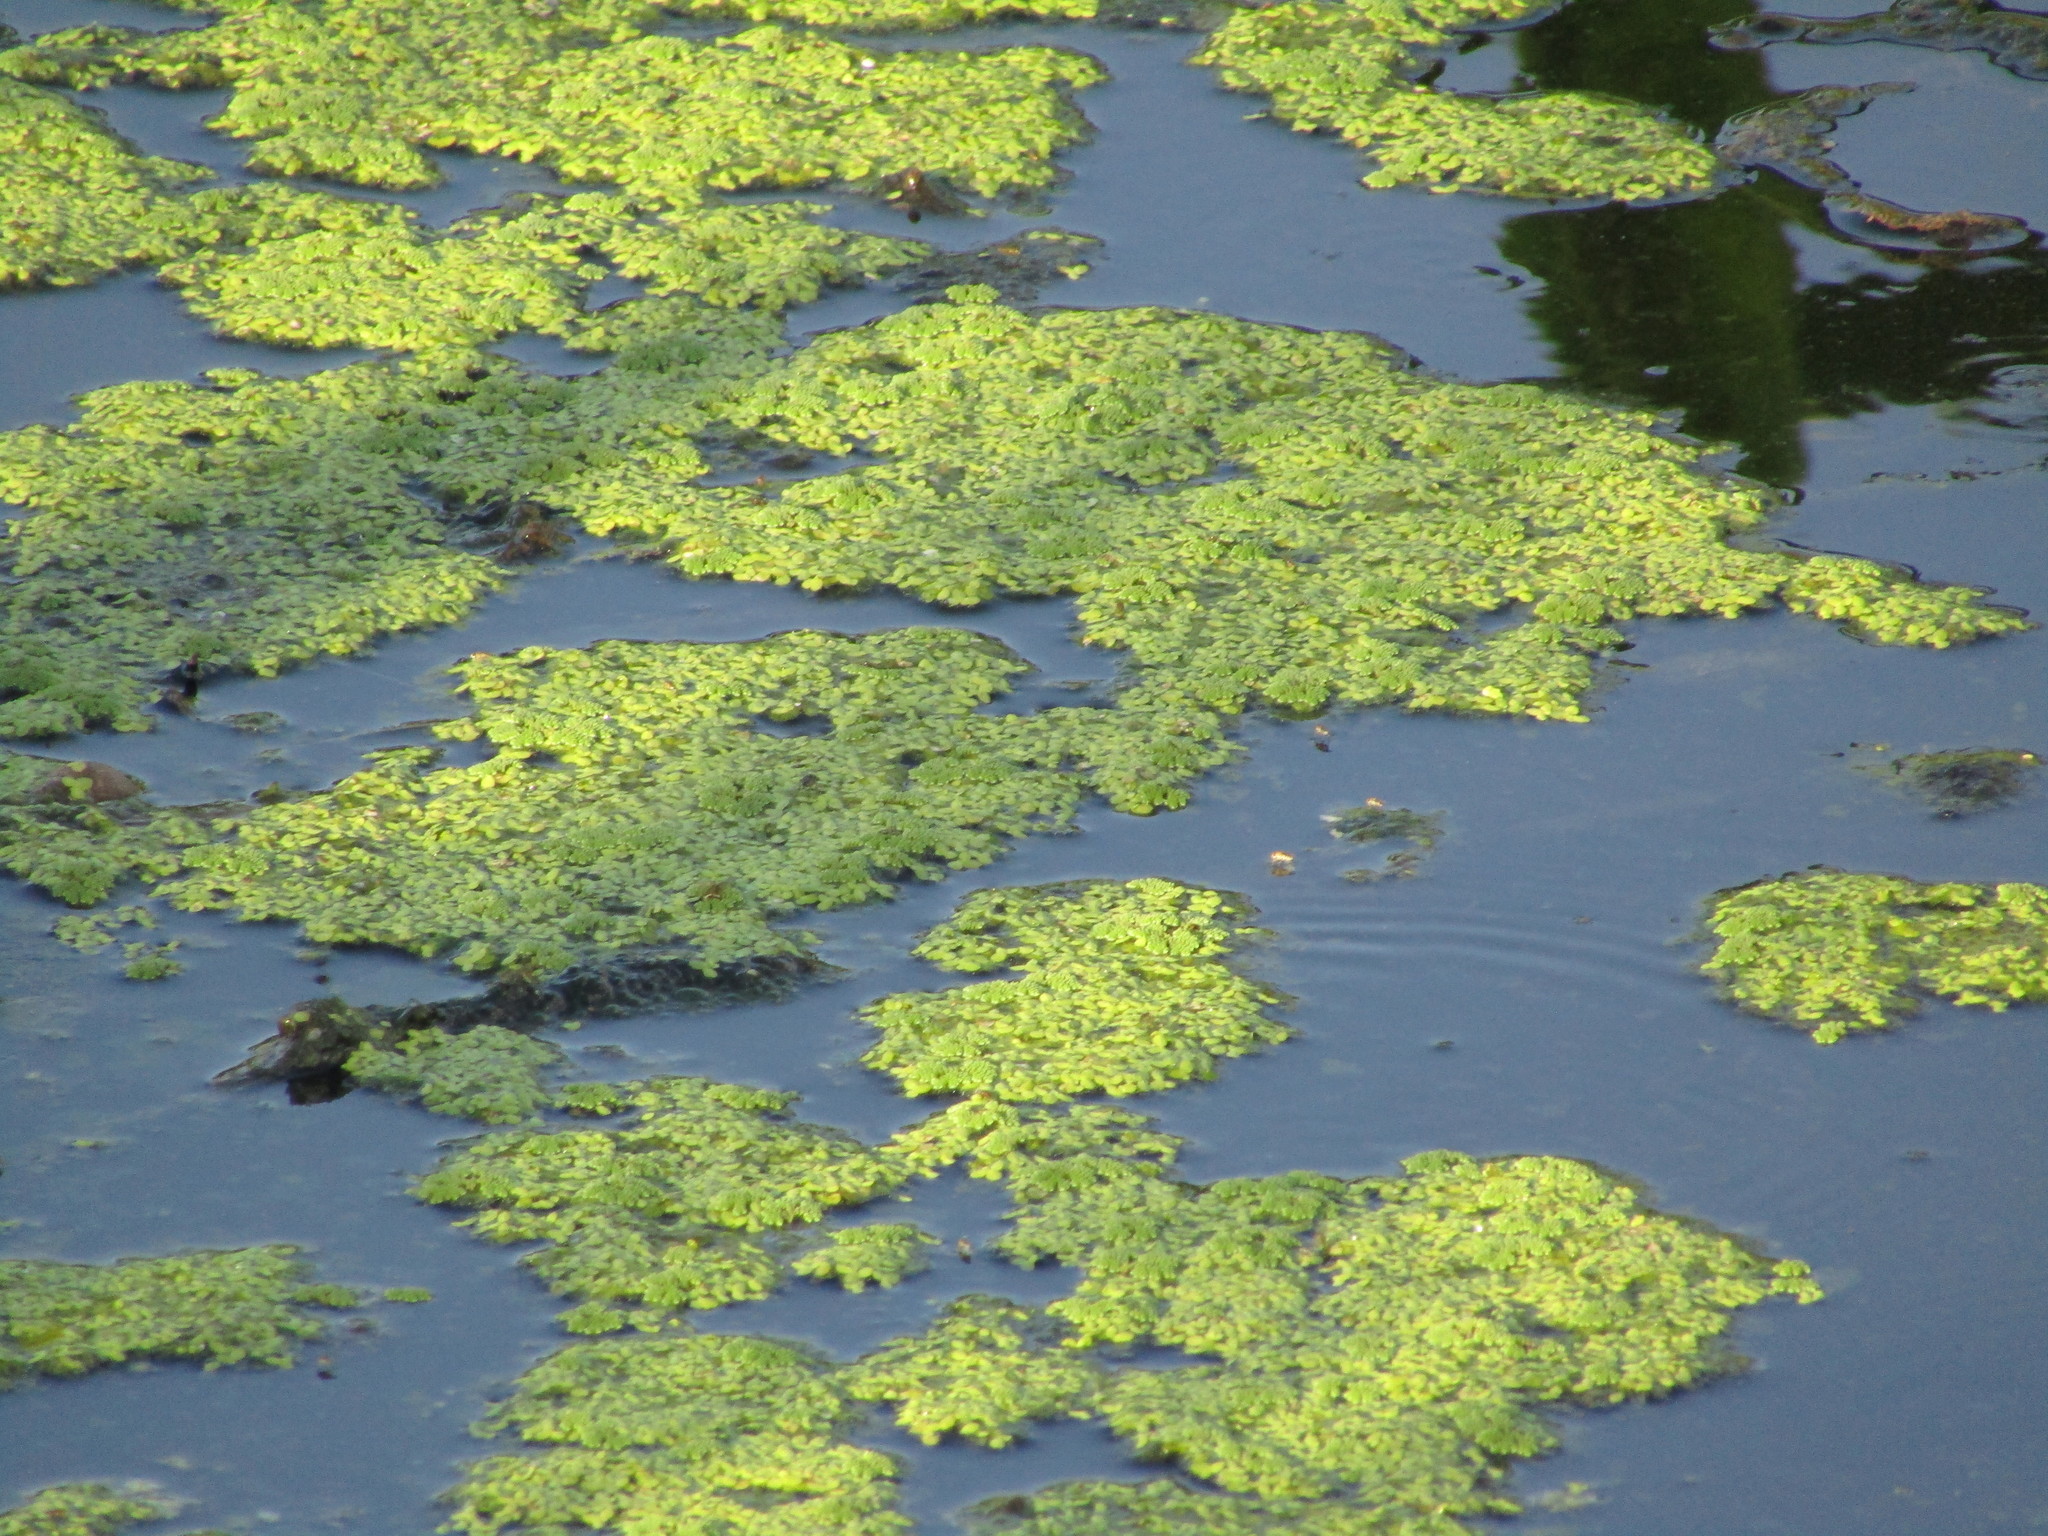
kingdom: Plantae
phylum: Tracheophyta
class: Polypodiopsida
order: Salviniales
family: Salviniaceae
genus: Azolla
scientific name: Azolla
